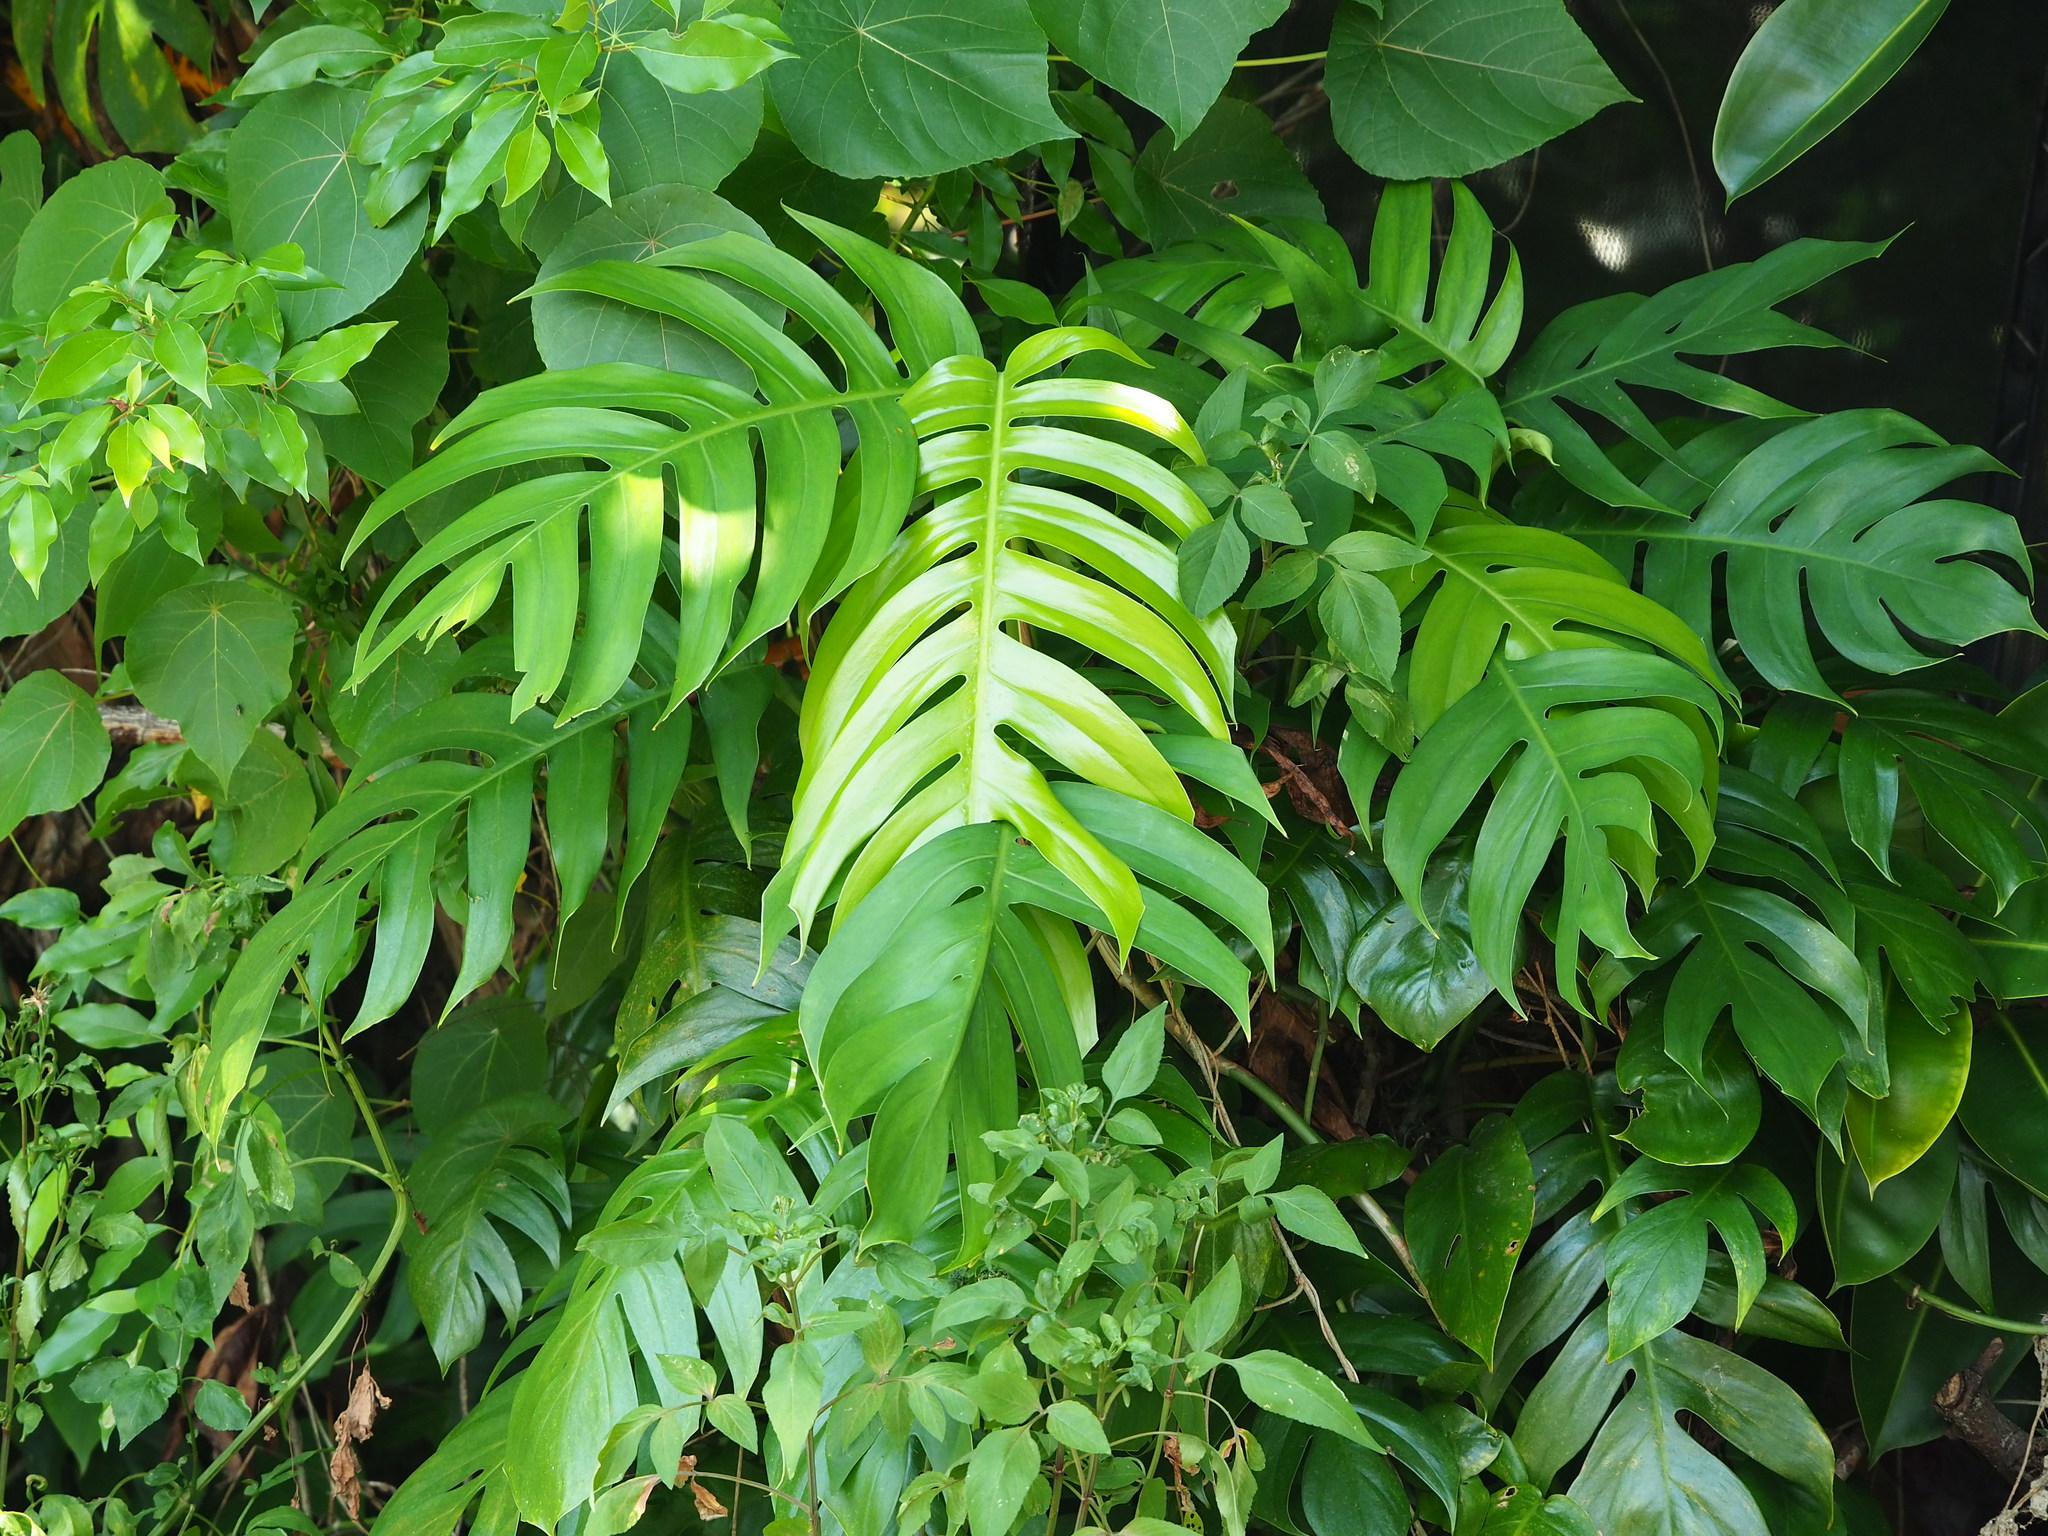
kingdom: Plantae
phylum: Tracheophyta
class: Liliopsida
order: Alismatales
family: Araceae
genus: Epipremnum
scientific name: Epipremnum pinnatum
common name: Centipede tongavine
